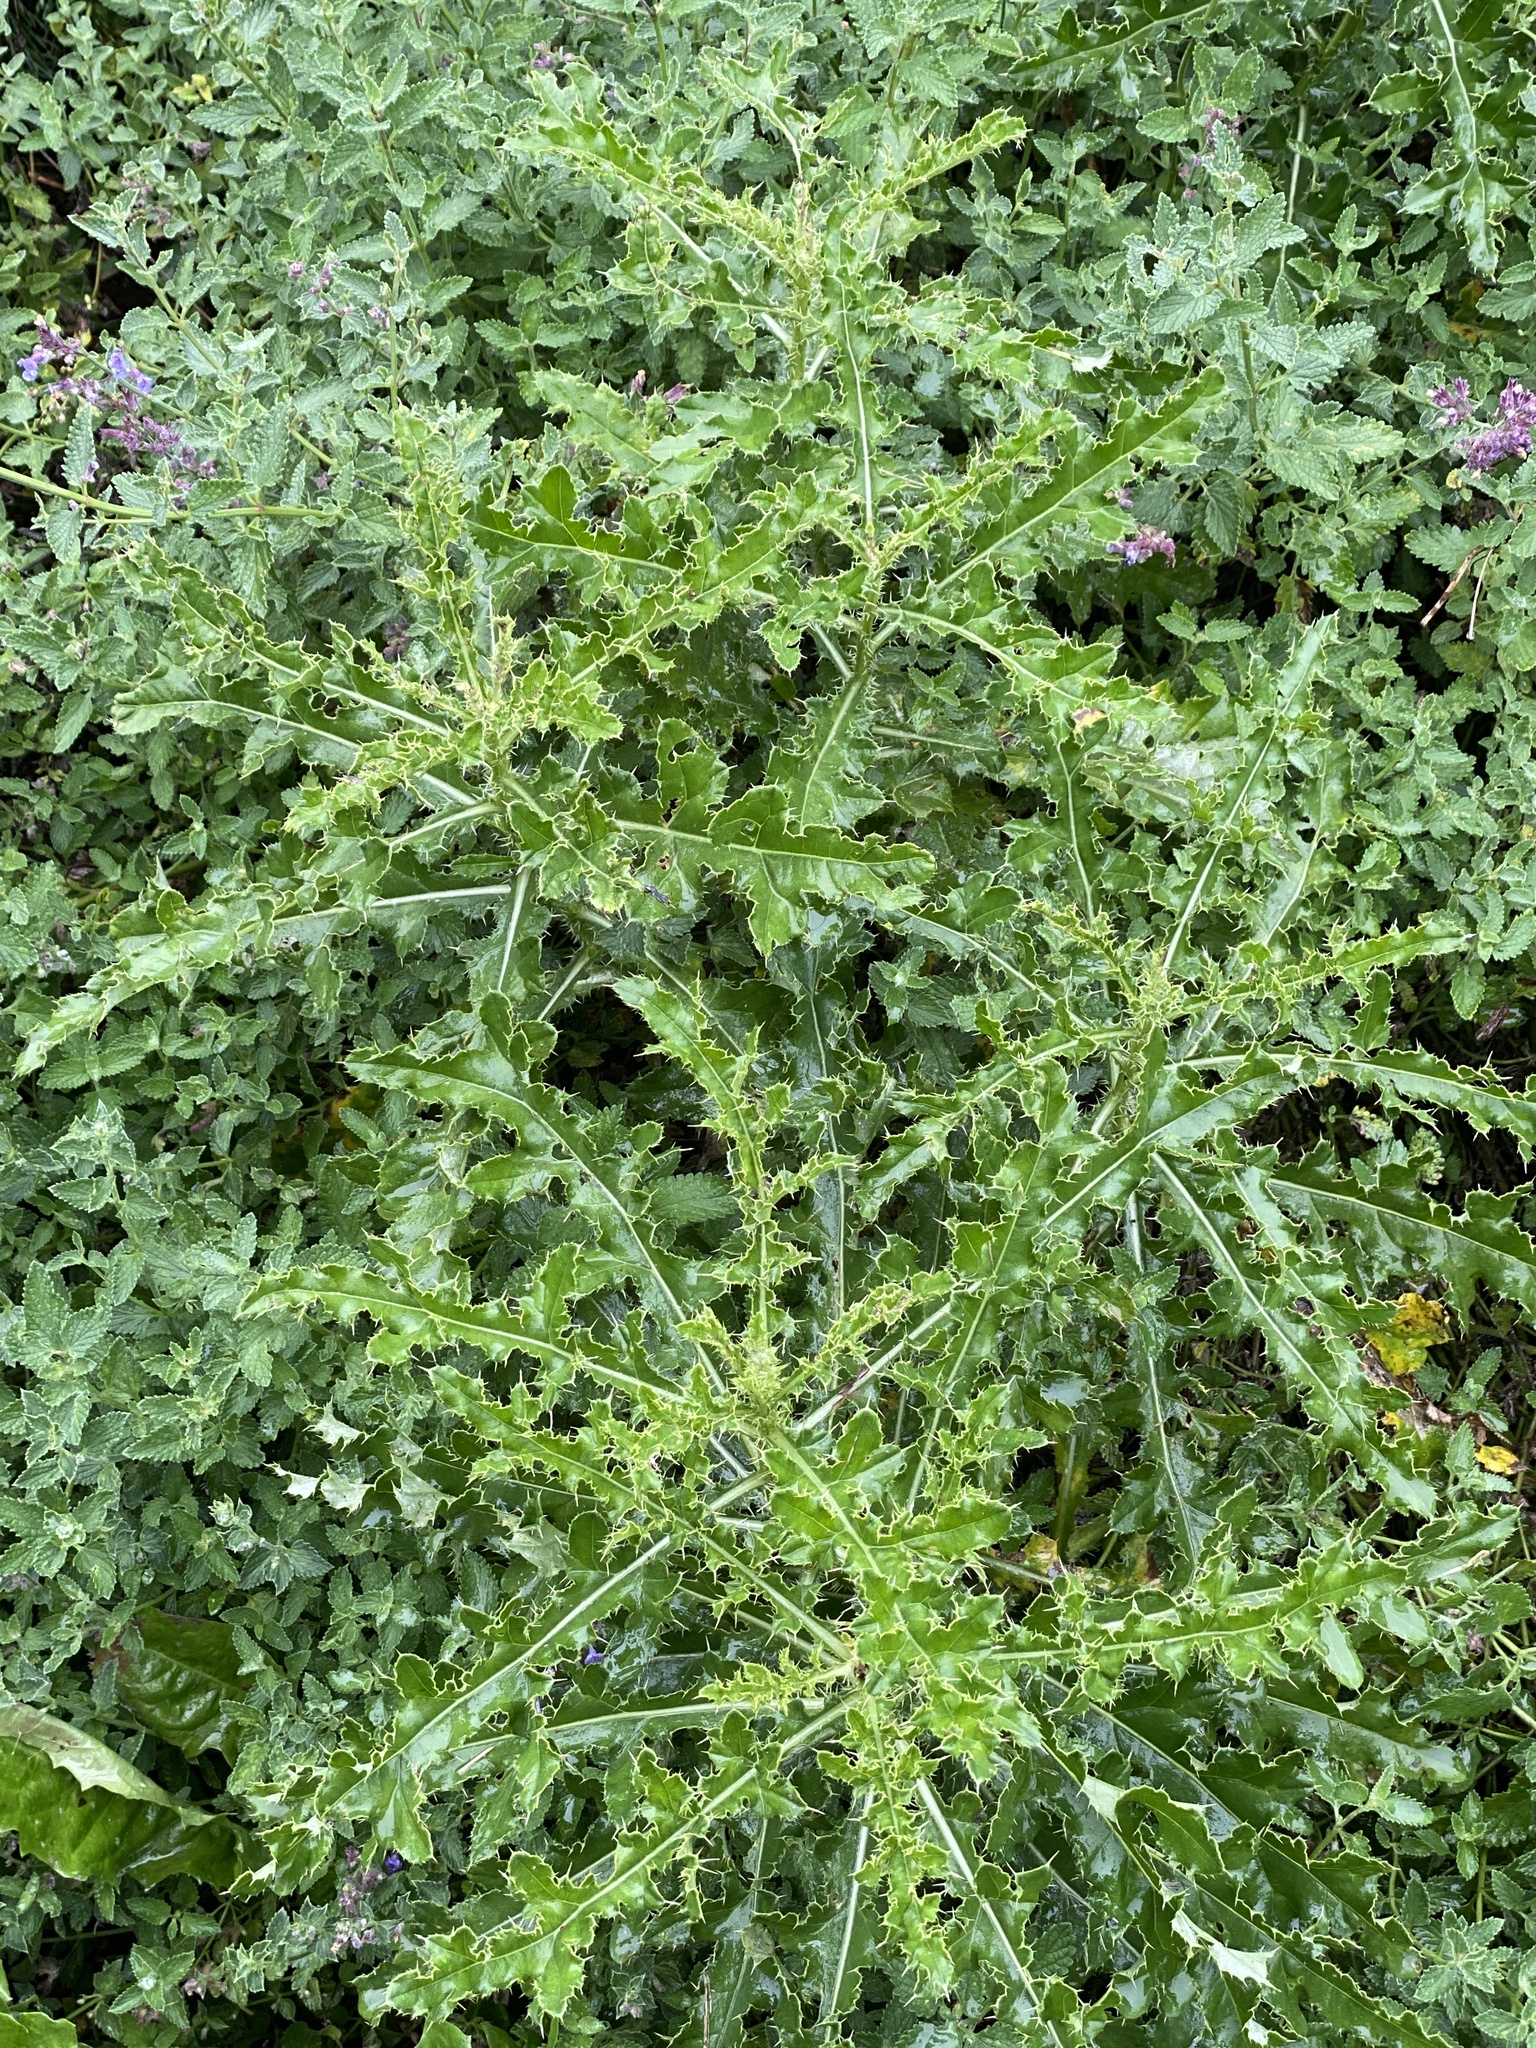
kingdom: Plantae
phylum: Tracheophyta
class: Magnoliopsida
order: Asterales
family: Asteraceae
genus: Cirsium
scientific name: Cirsium arvense
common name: Creeping thistle
